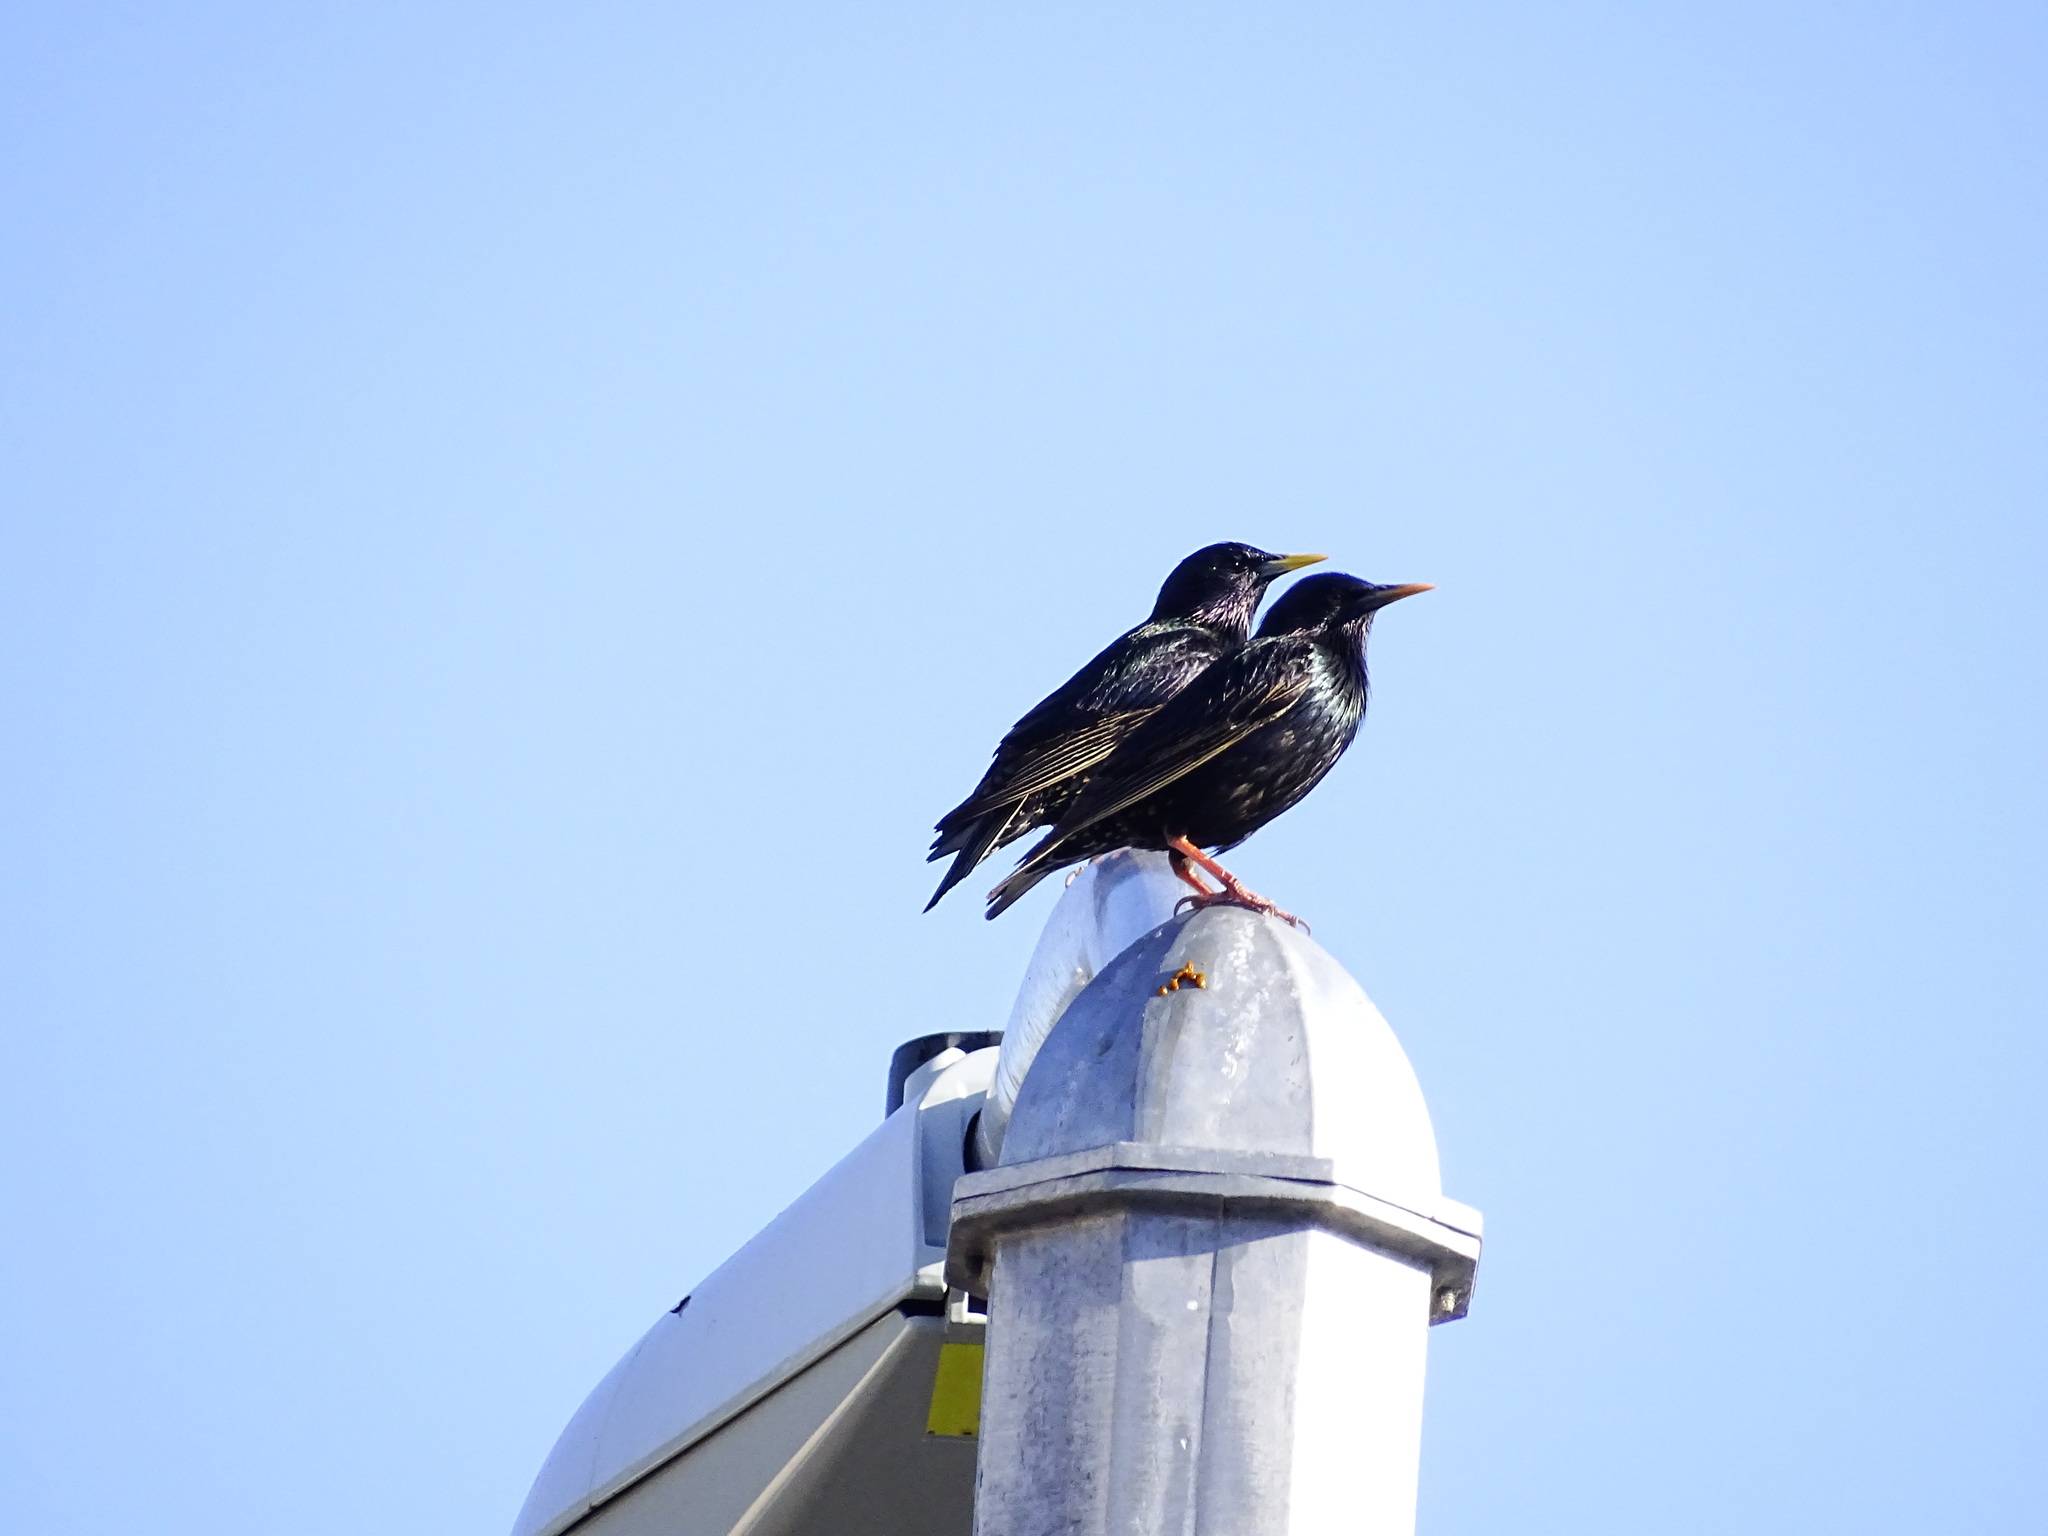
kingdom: Animalia
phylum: Chordata
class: Aves
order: Passeriformes
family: Sturnidae
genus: Sturnus
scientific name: Sturnus vulgaris
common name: Common starling
